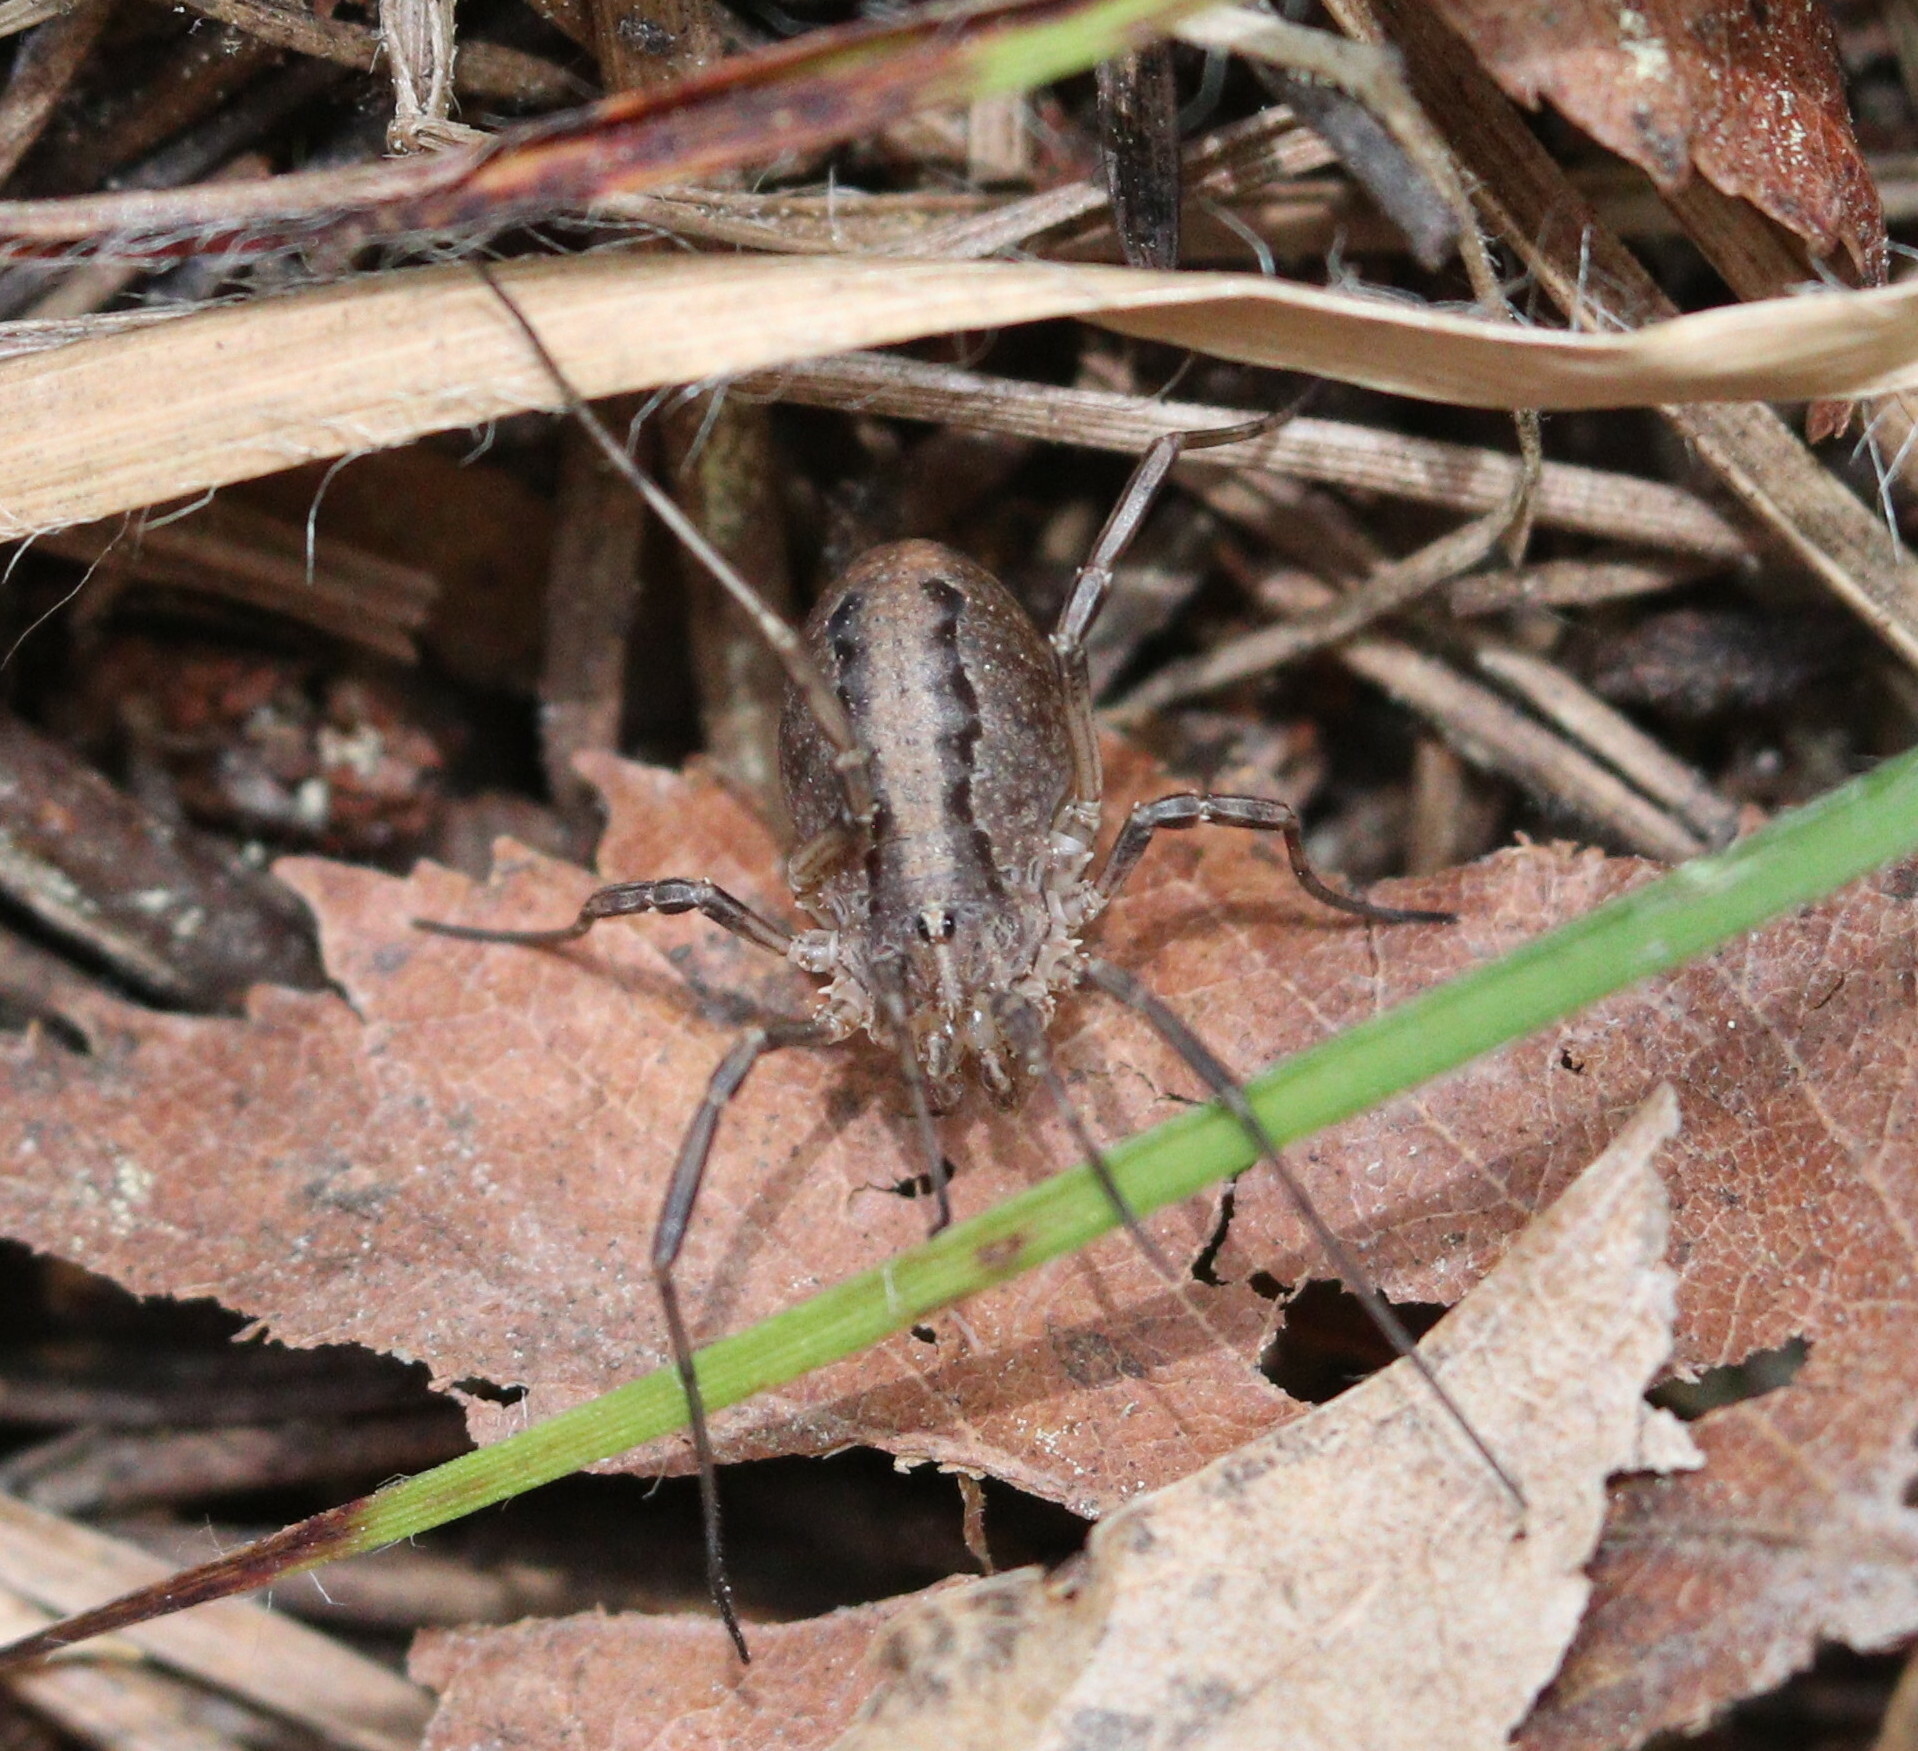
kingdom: Animalia
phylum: Arthropoda
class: Arachnida
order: Opiliones
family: Phalangiidae
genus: Odiellus
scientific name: Odiellus troguloides
